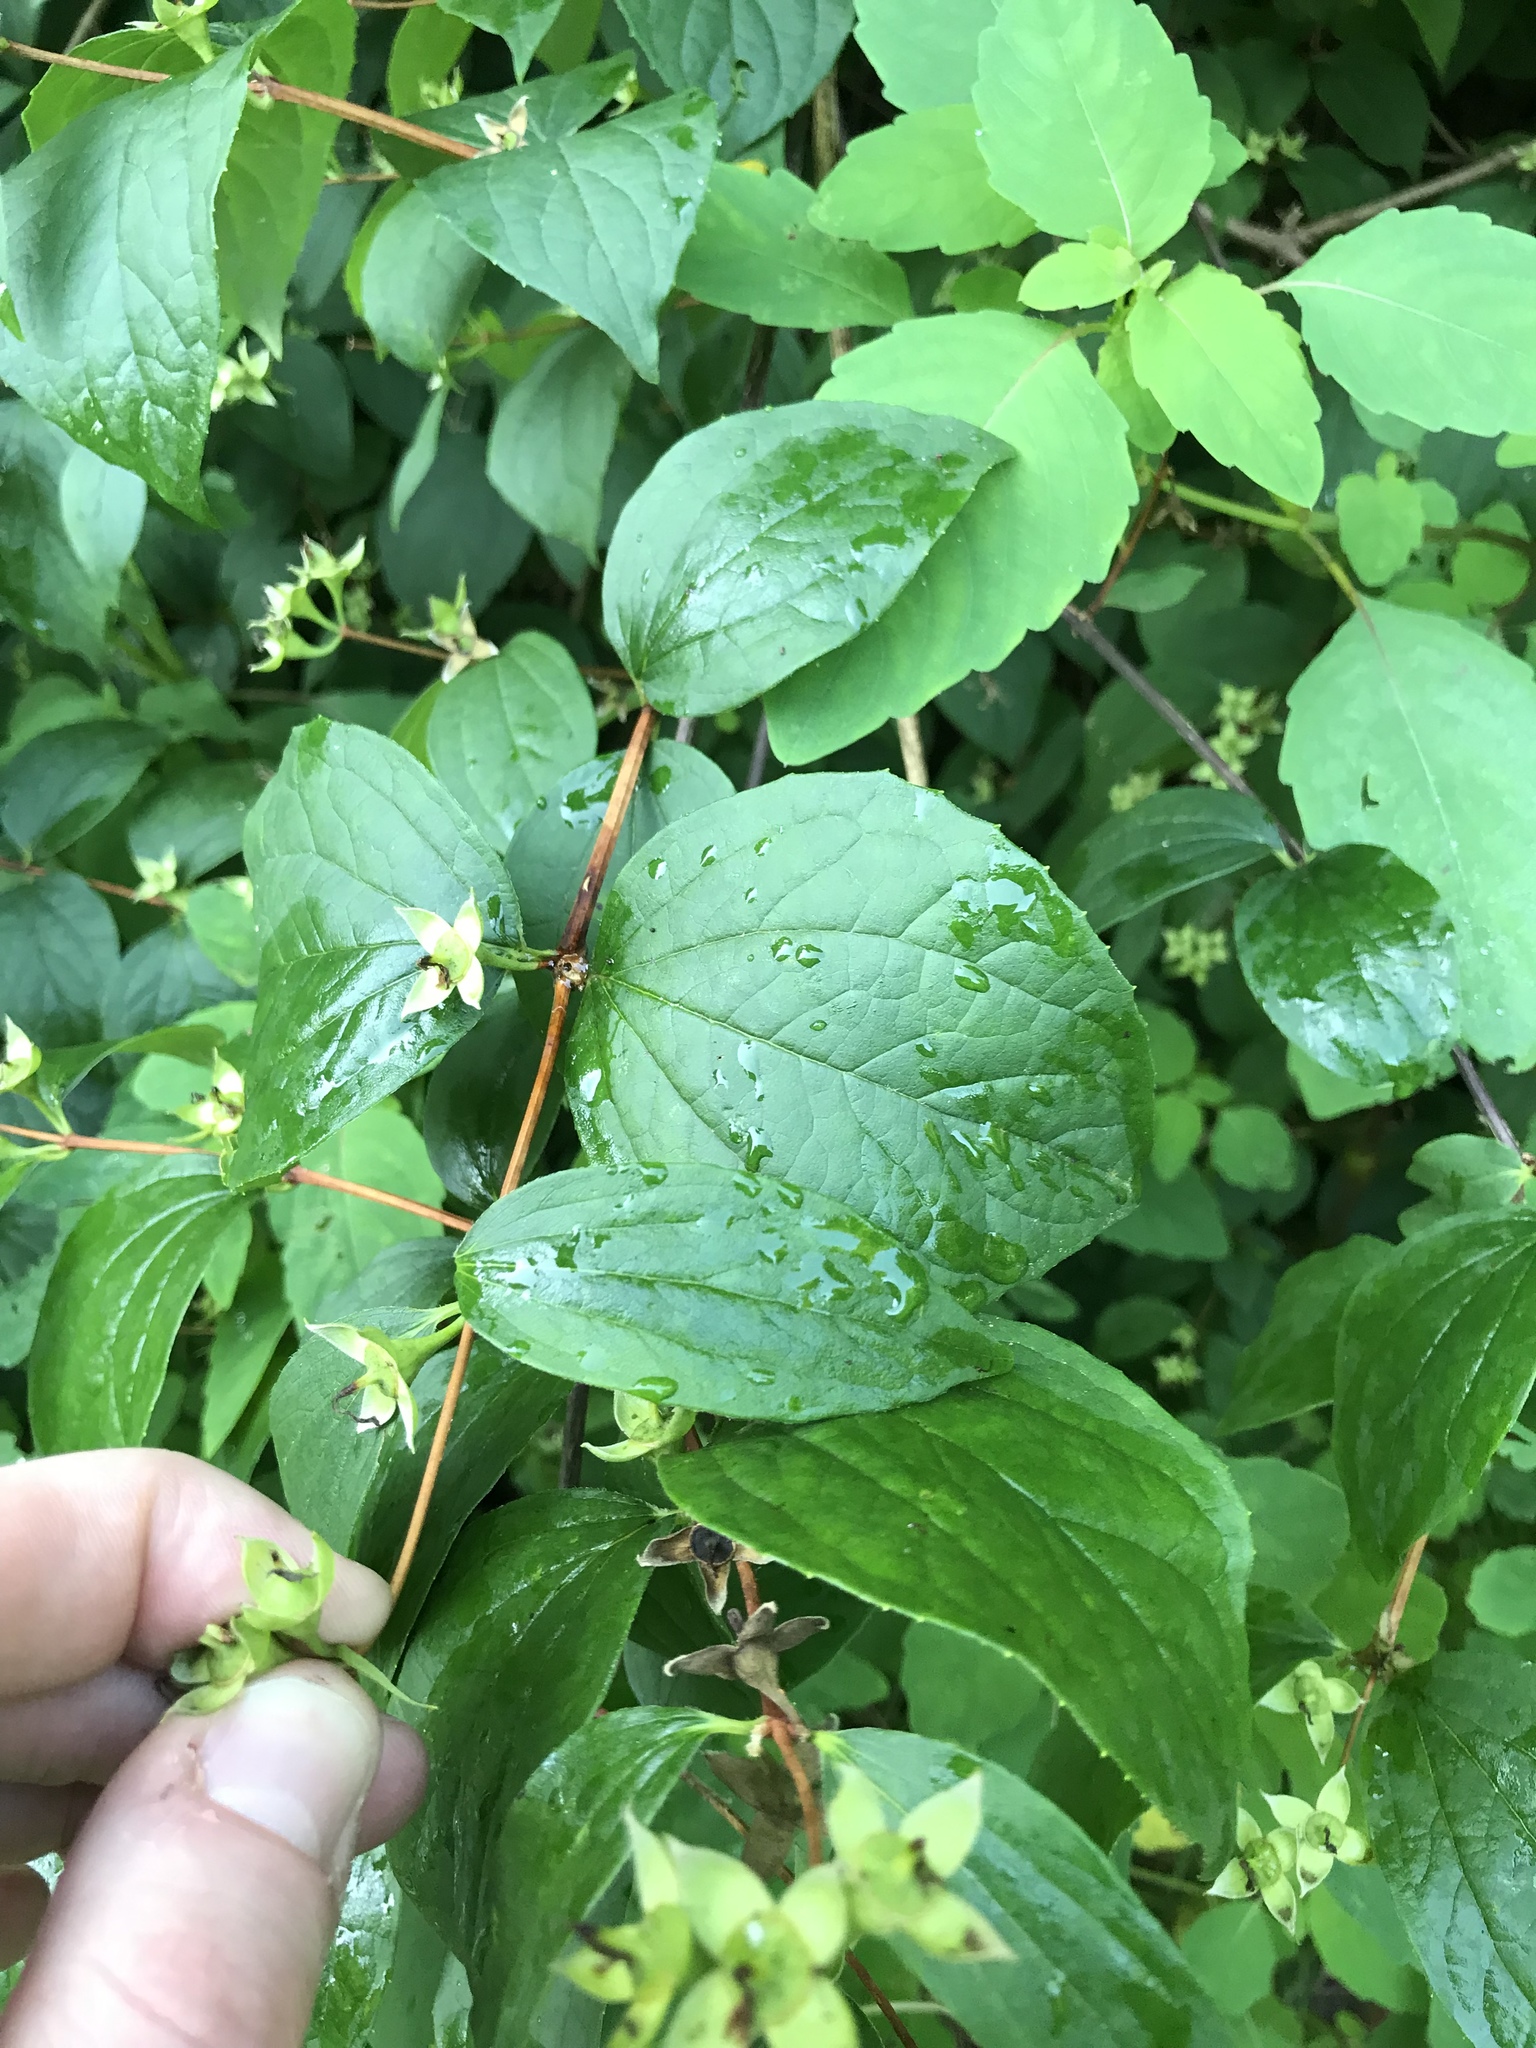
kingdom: Plantae
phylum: Tracheophyta
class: Magnoliopsida
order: Cornales
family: Hydrangeaceae
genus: Philadelphus
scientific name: Philadelphus coronarius
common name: Mock orange
